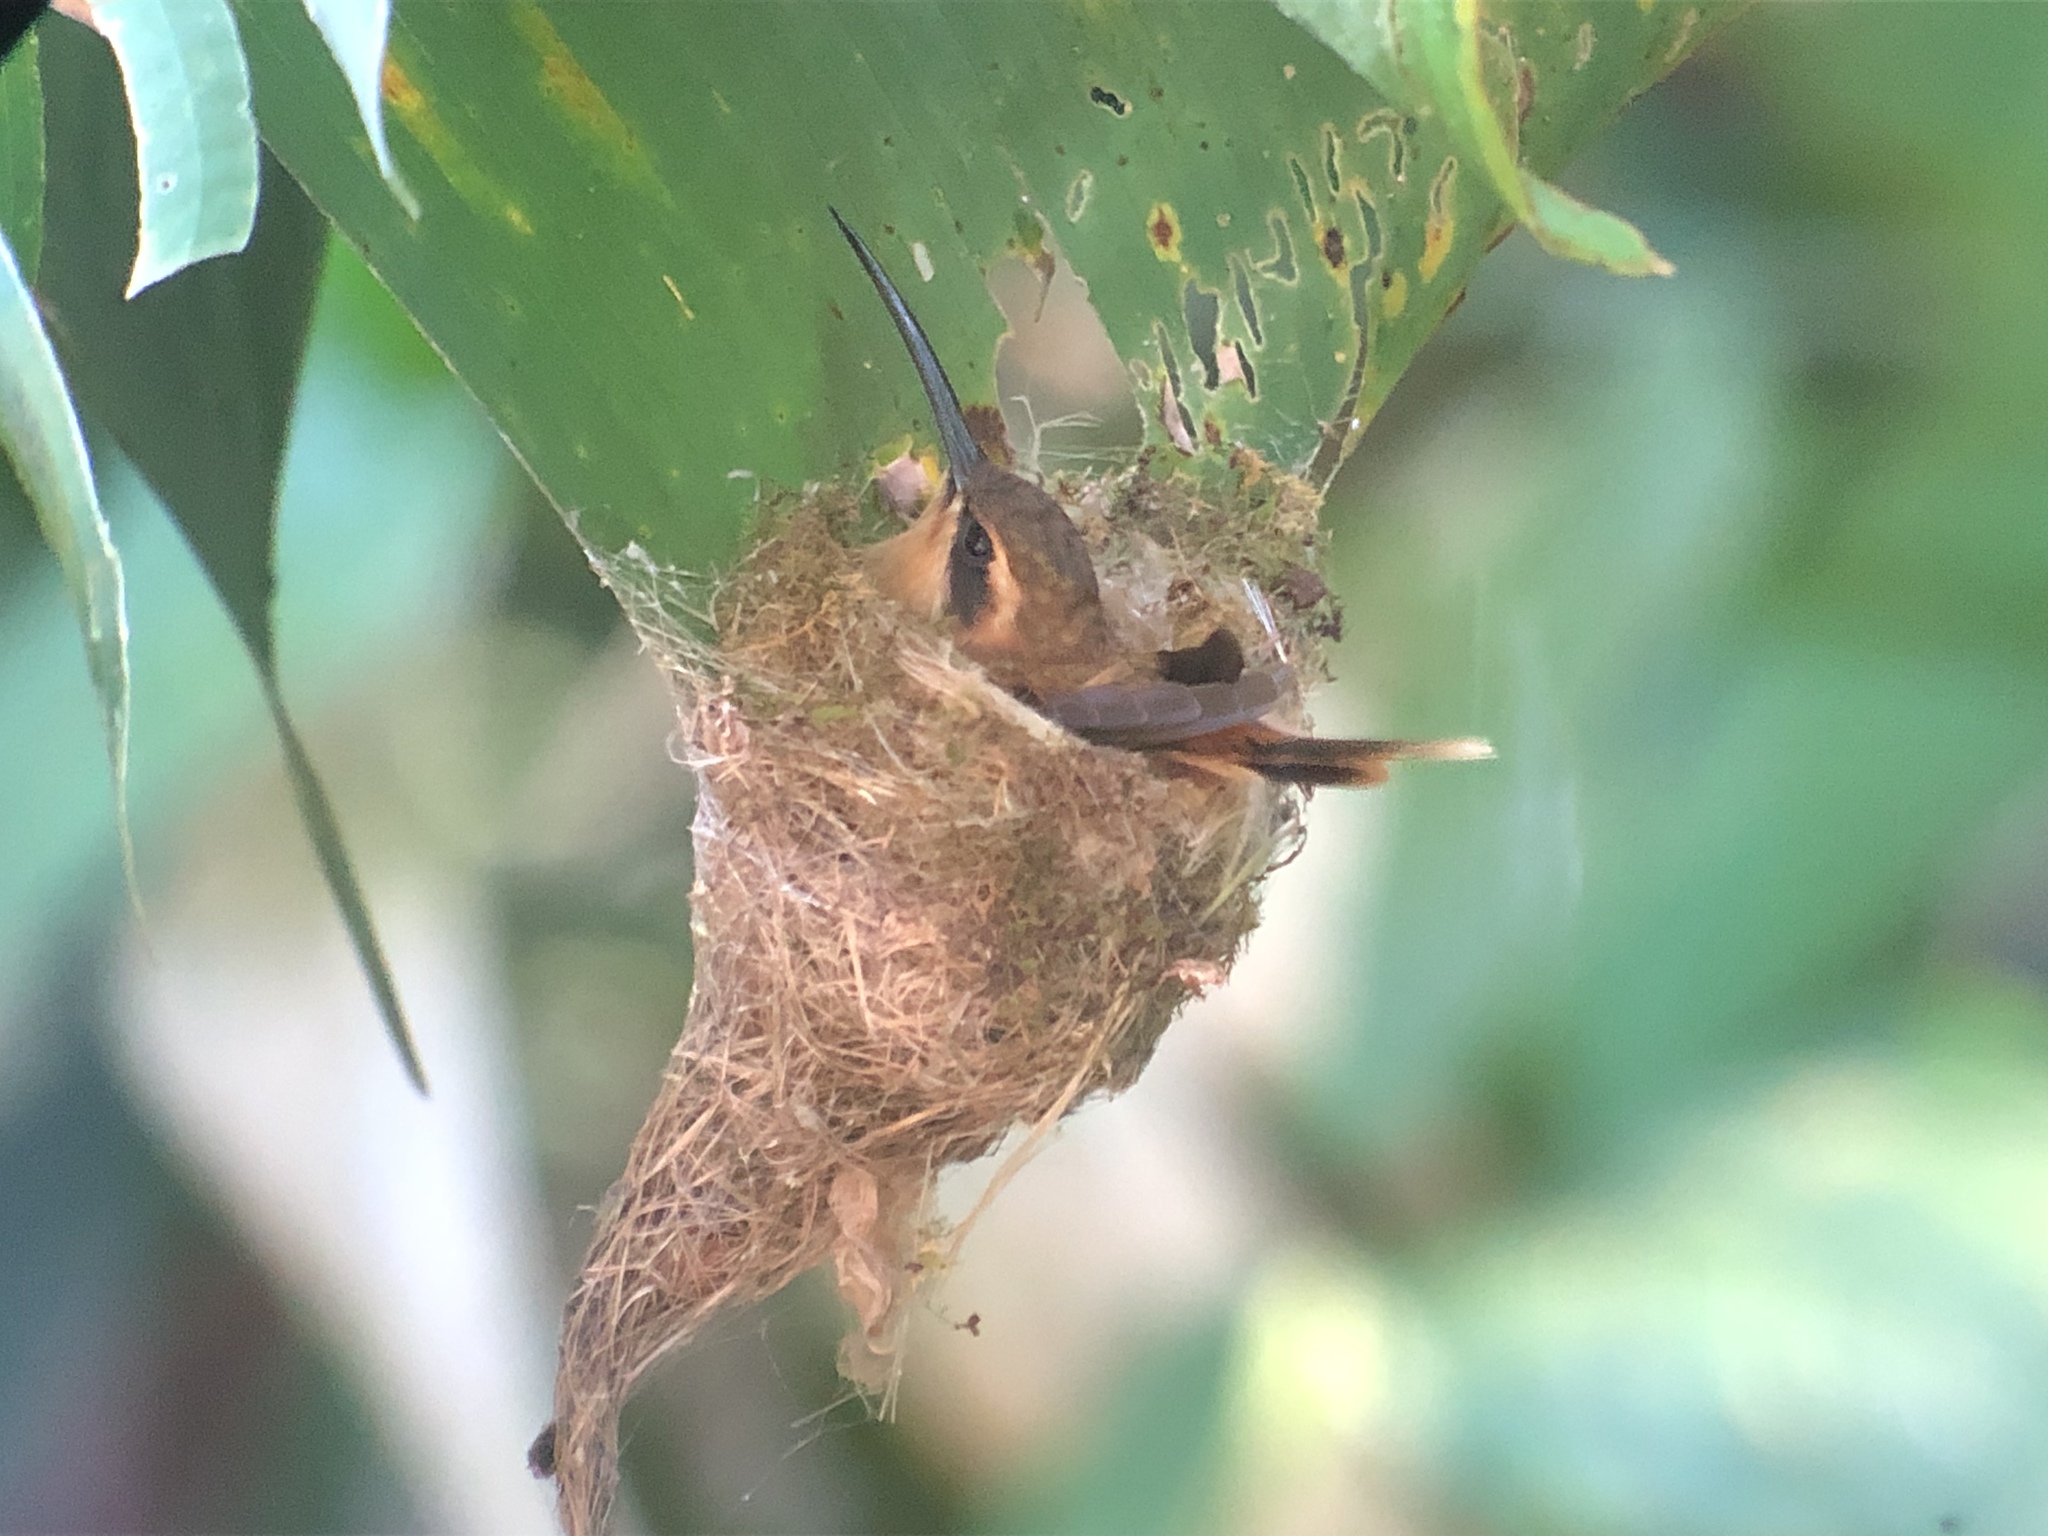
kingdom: Animalia
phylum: Chordata
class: Aves
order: Apodiformes
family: Trochilidae
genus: Phaethornis
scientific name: Phaethornis striigularis
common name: Stripe-throated hermit
